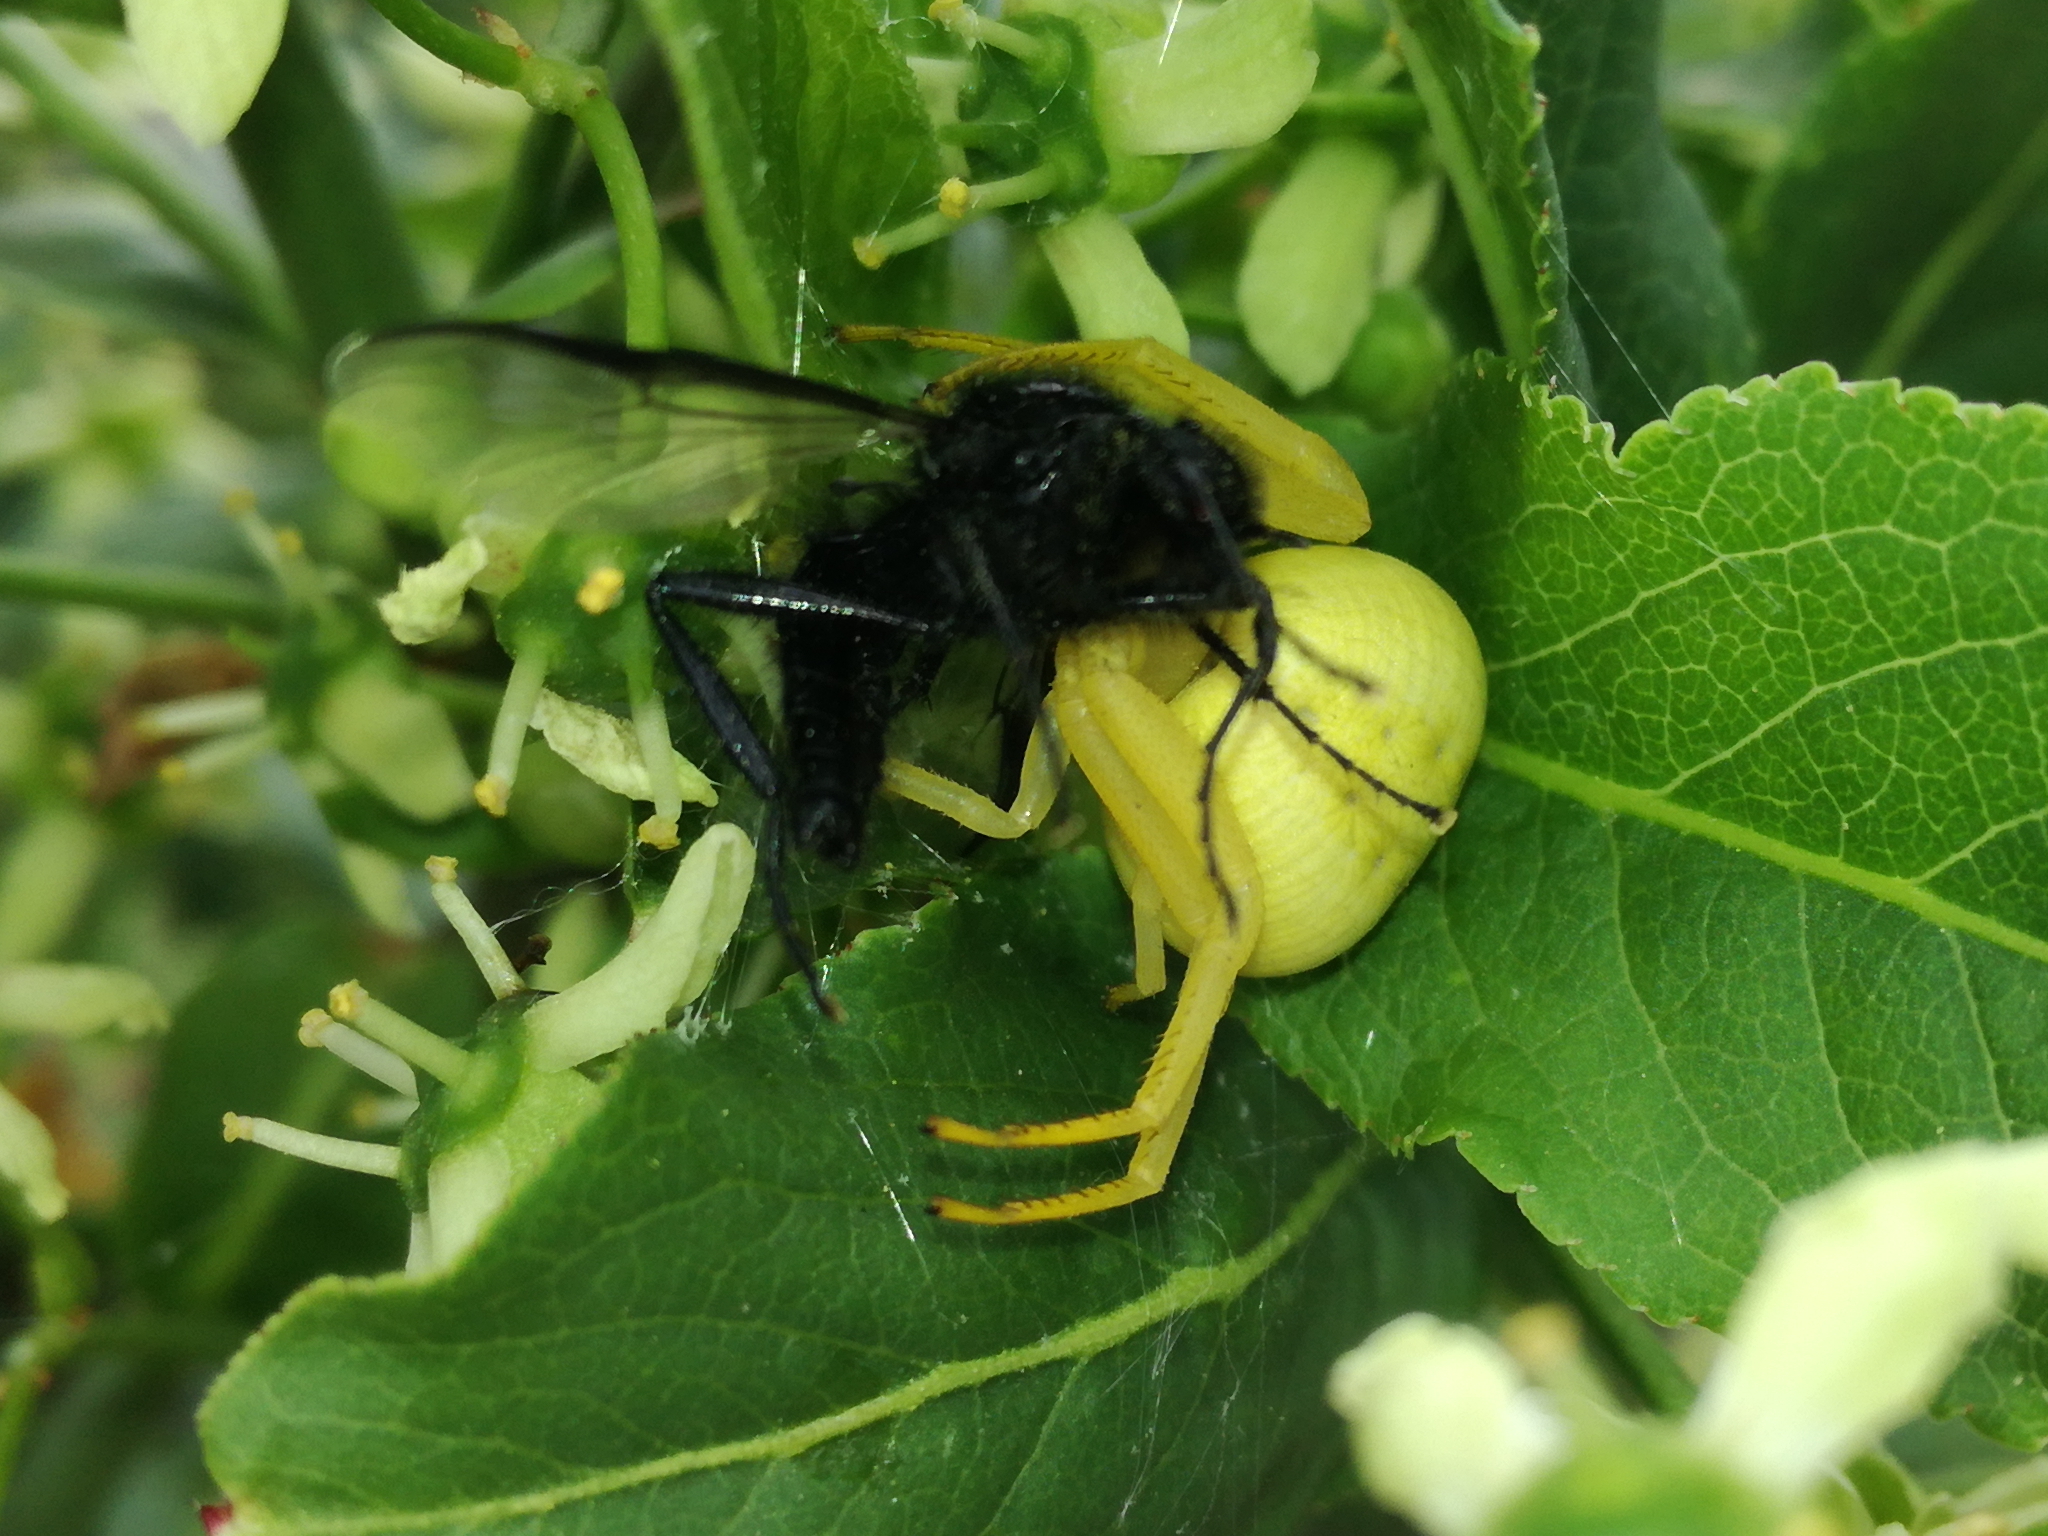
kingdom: Animalia
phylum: Arthropoda
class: Arachnida
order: Araneae
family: Thomisidae
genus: Misumena
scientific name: Misumena vatia
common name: Goldenrod crab spider
